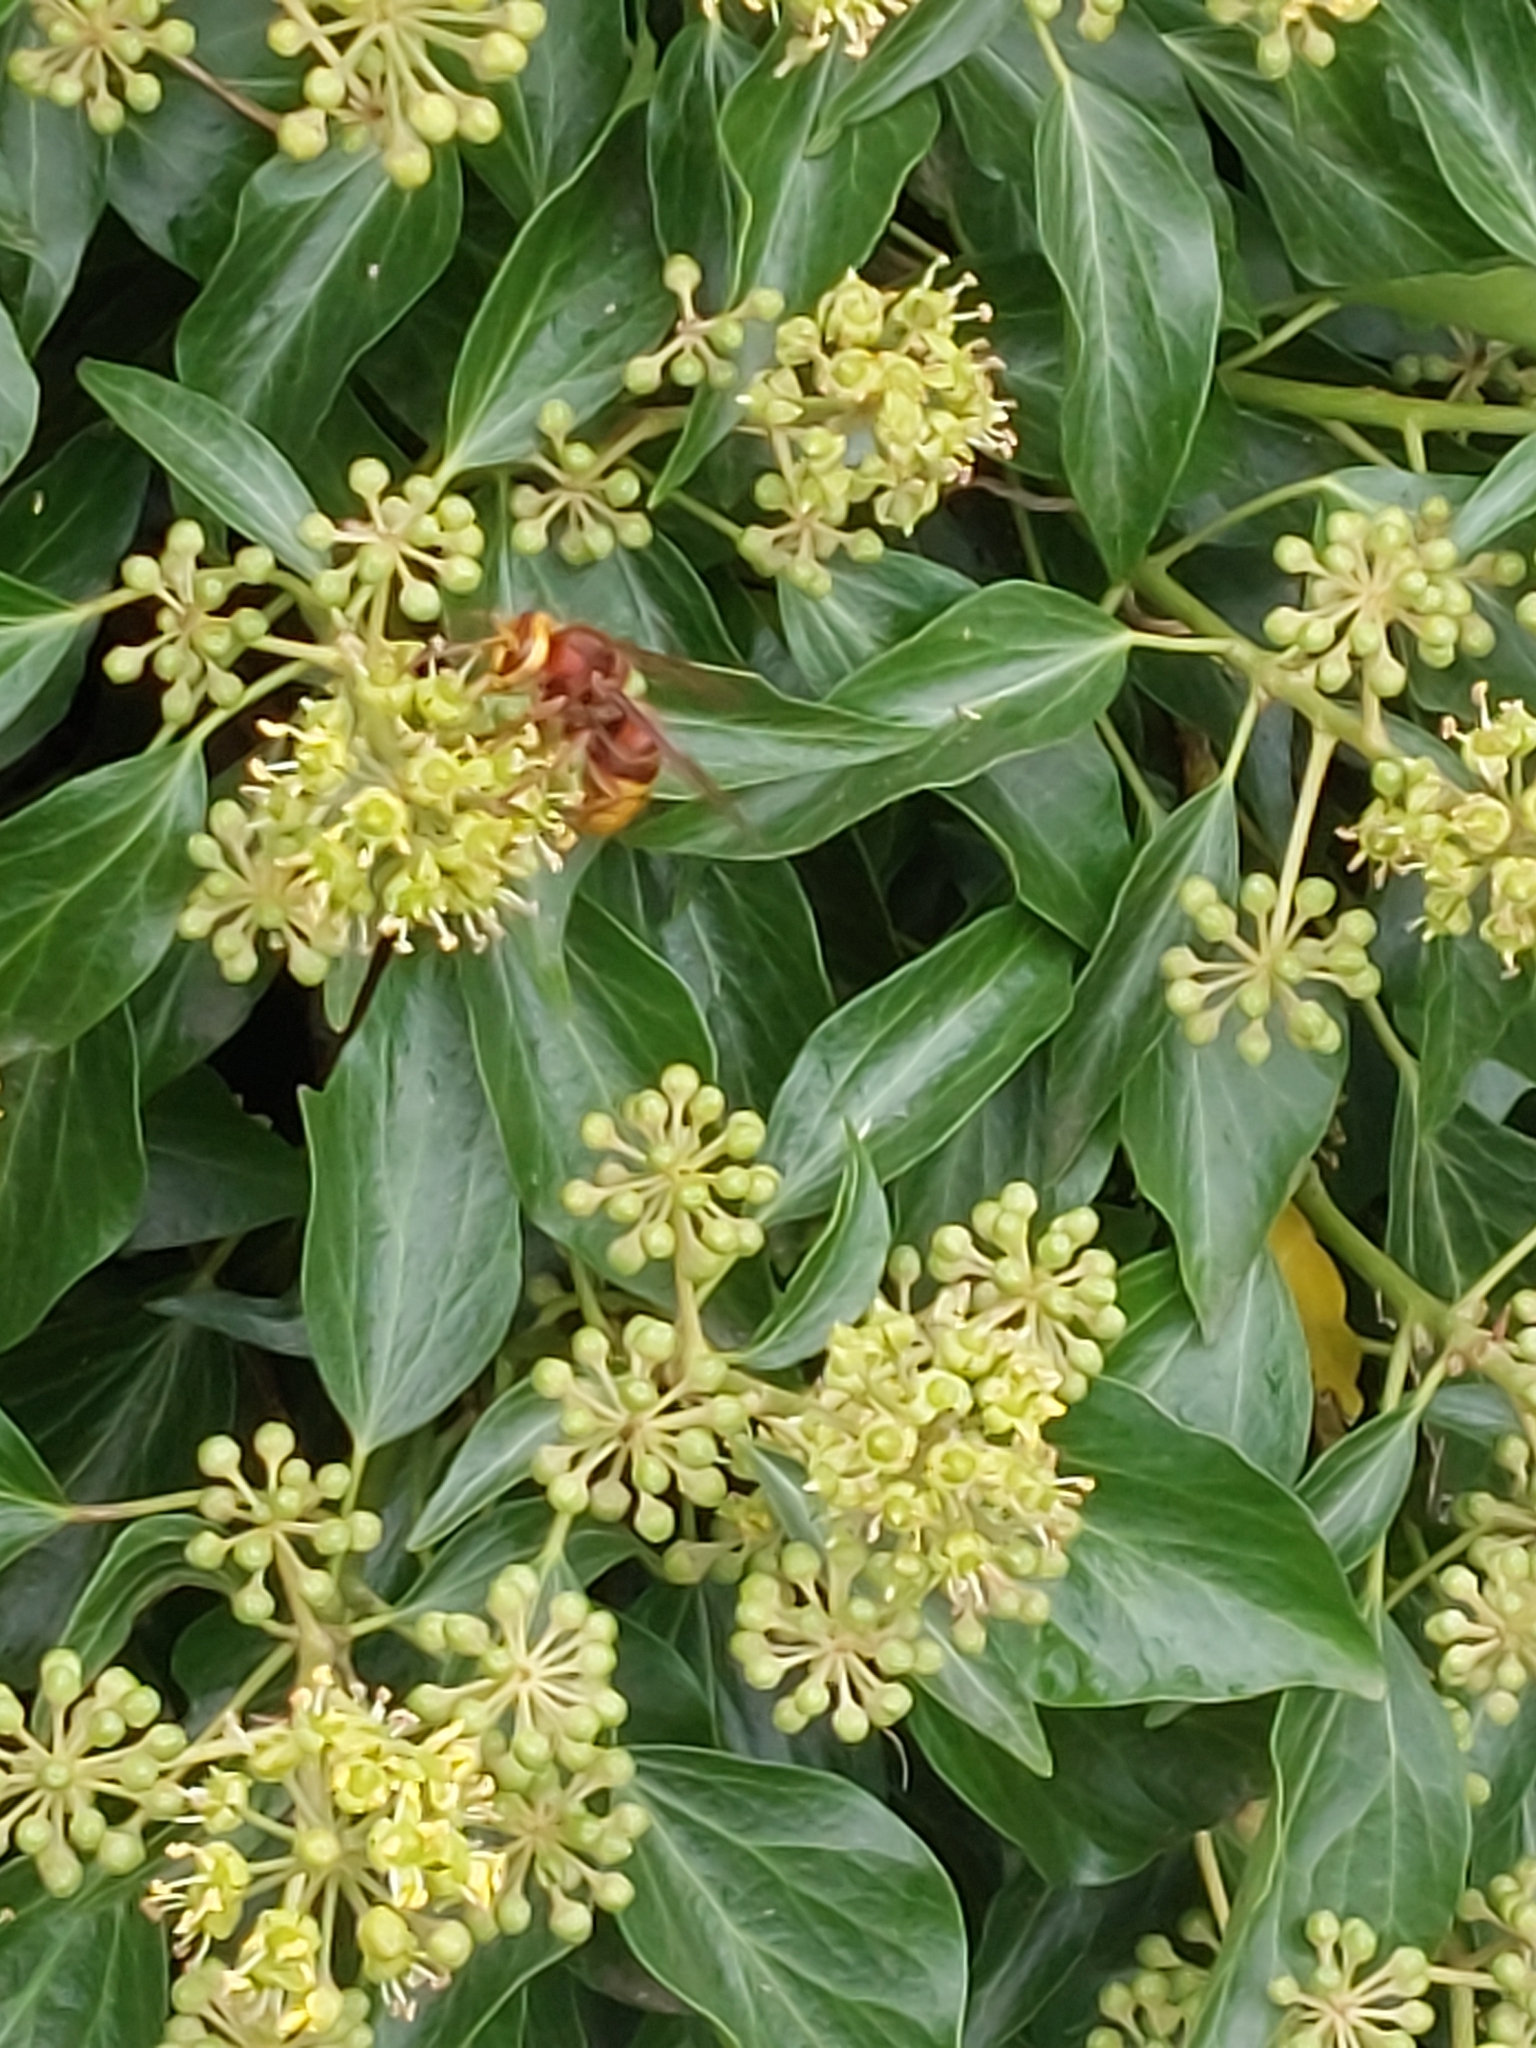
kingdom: Animalia
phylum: Arthropoda
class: Insecta
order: Hymenoptera
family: Vespidae
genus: Vespa
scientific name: Vespa crabro
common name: Hornet
